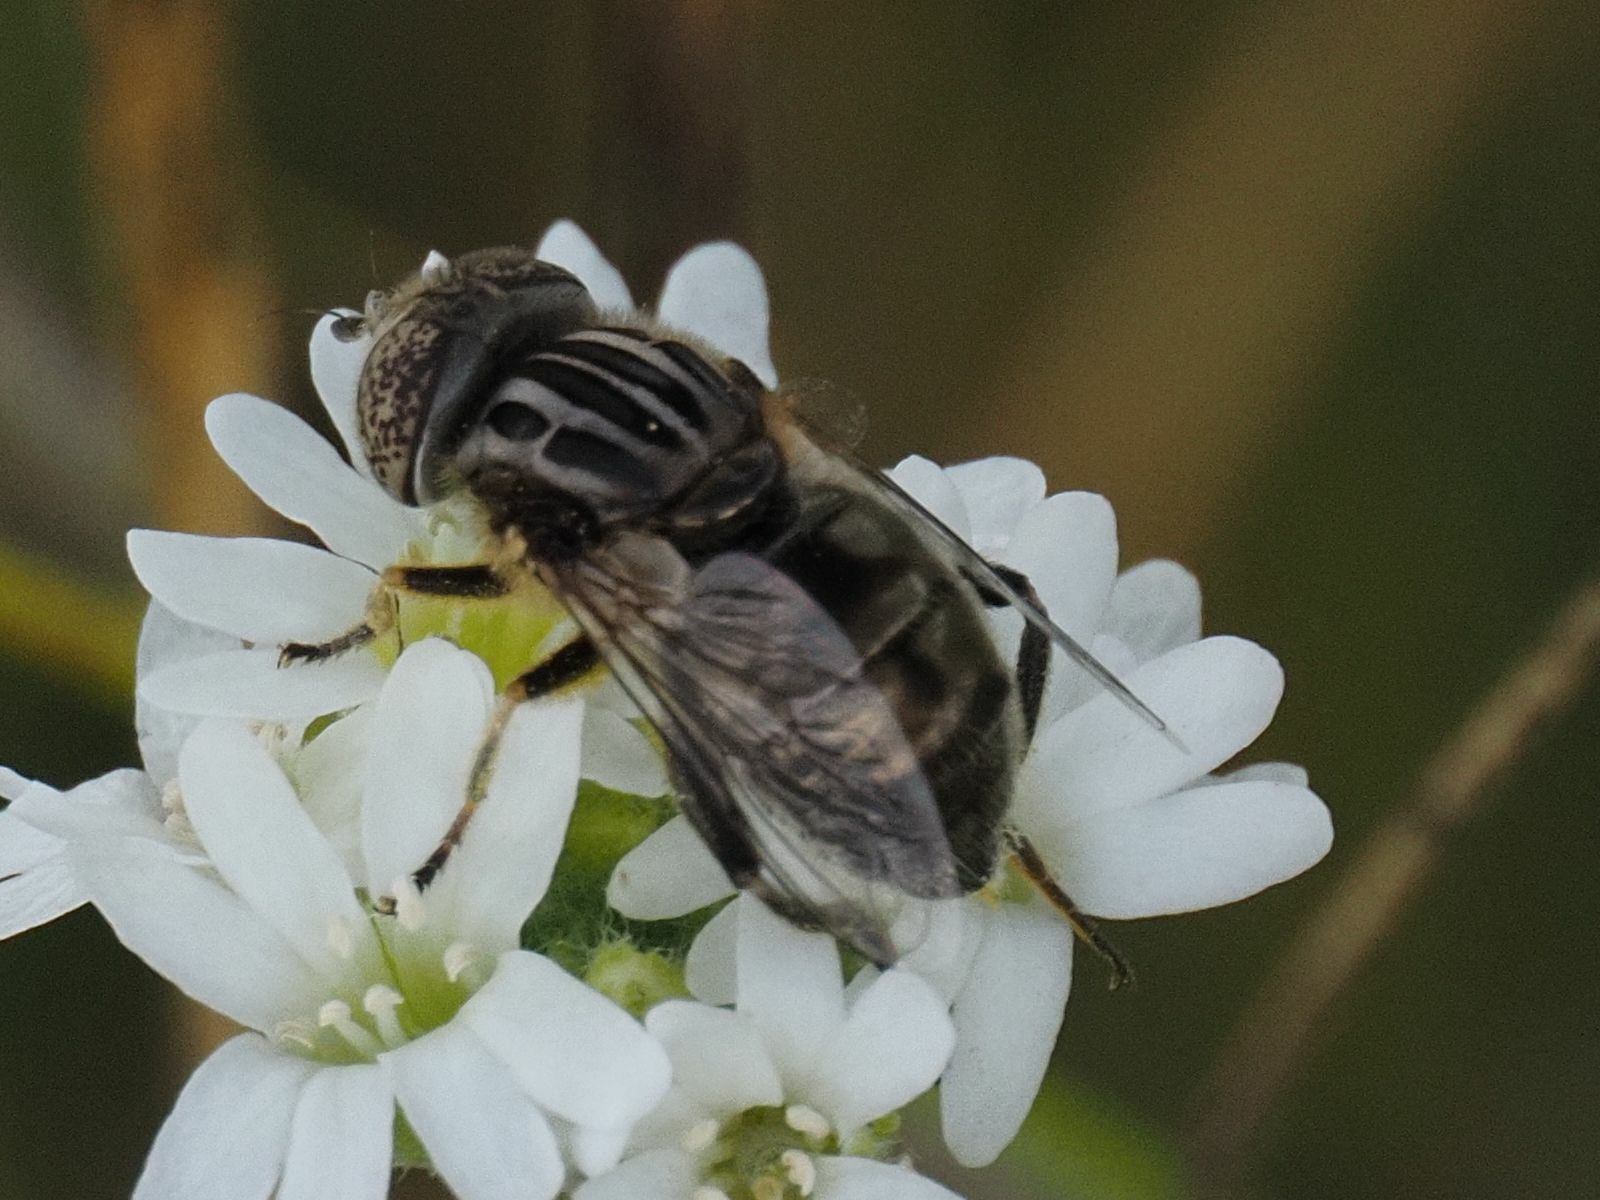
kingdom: Animalia
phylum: Arthropoda
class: Insecta
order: Diptera
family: Syrphidae
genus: Eristalinus
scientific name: Eristalinus sepulchralis
